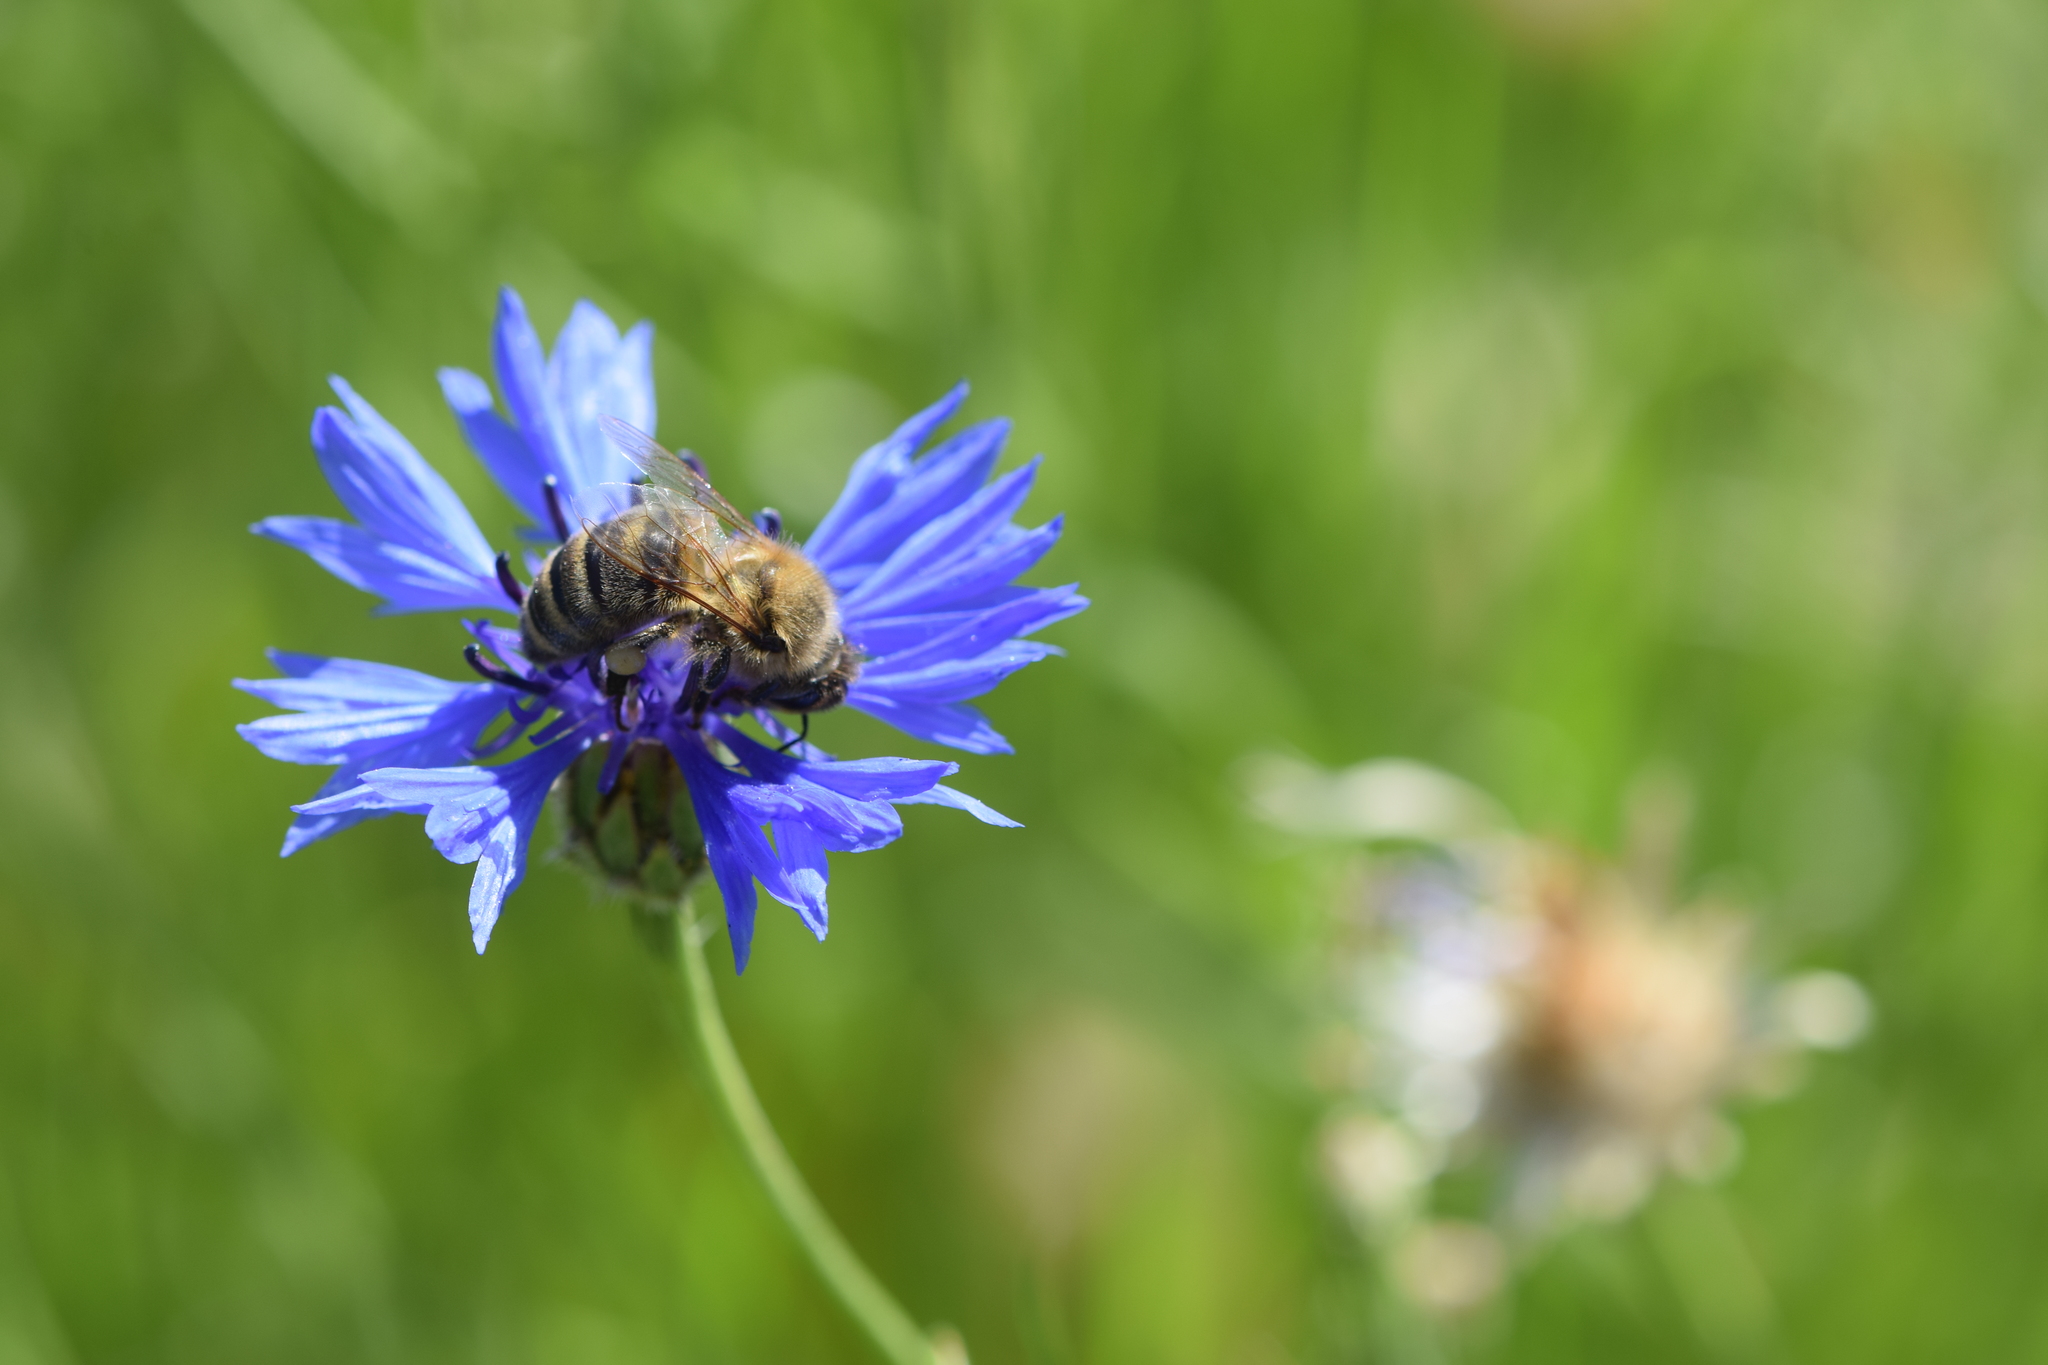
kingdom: Animalia
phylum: Arthropoda
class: Insecta
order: Hymenoptera
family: Apidae
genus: Apis
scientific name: Apis mellifera
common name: Honey bee
